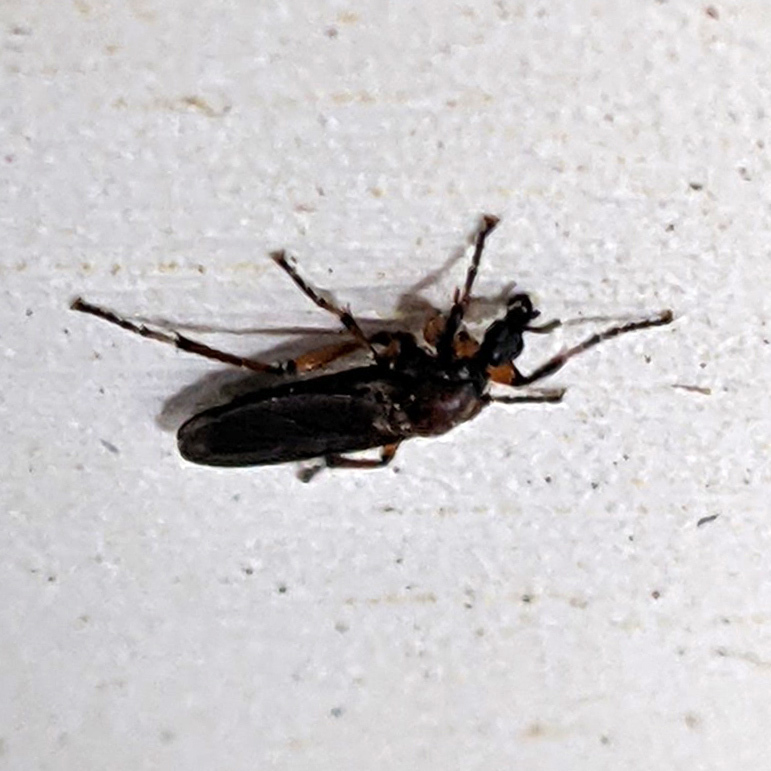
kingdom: Animalia
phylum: Arthropoda
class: Insecta
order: Diptera
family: Bibionidae
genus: Bibio
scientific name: Bibio articulatus
